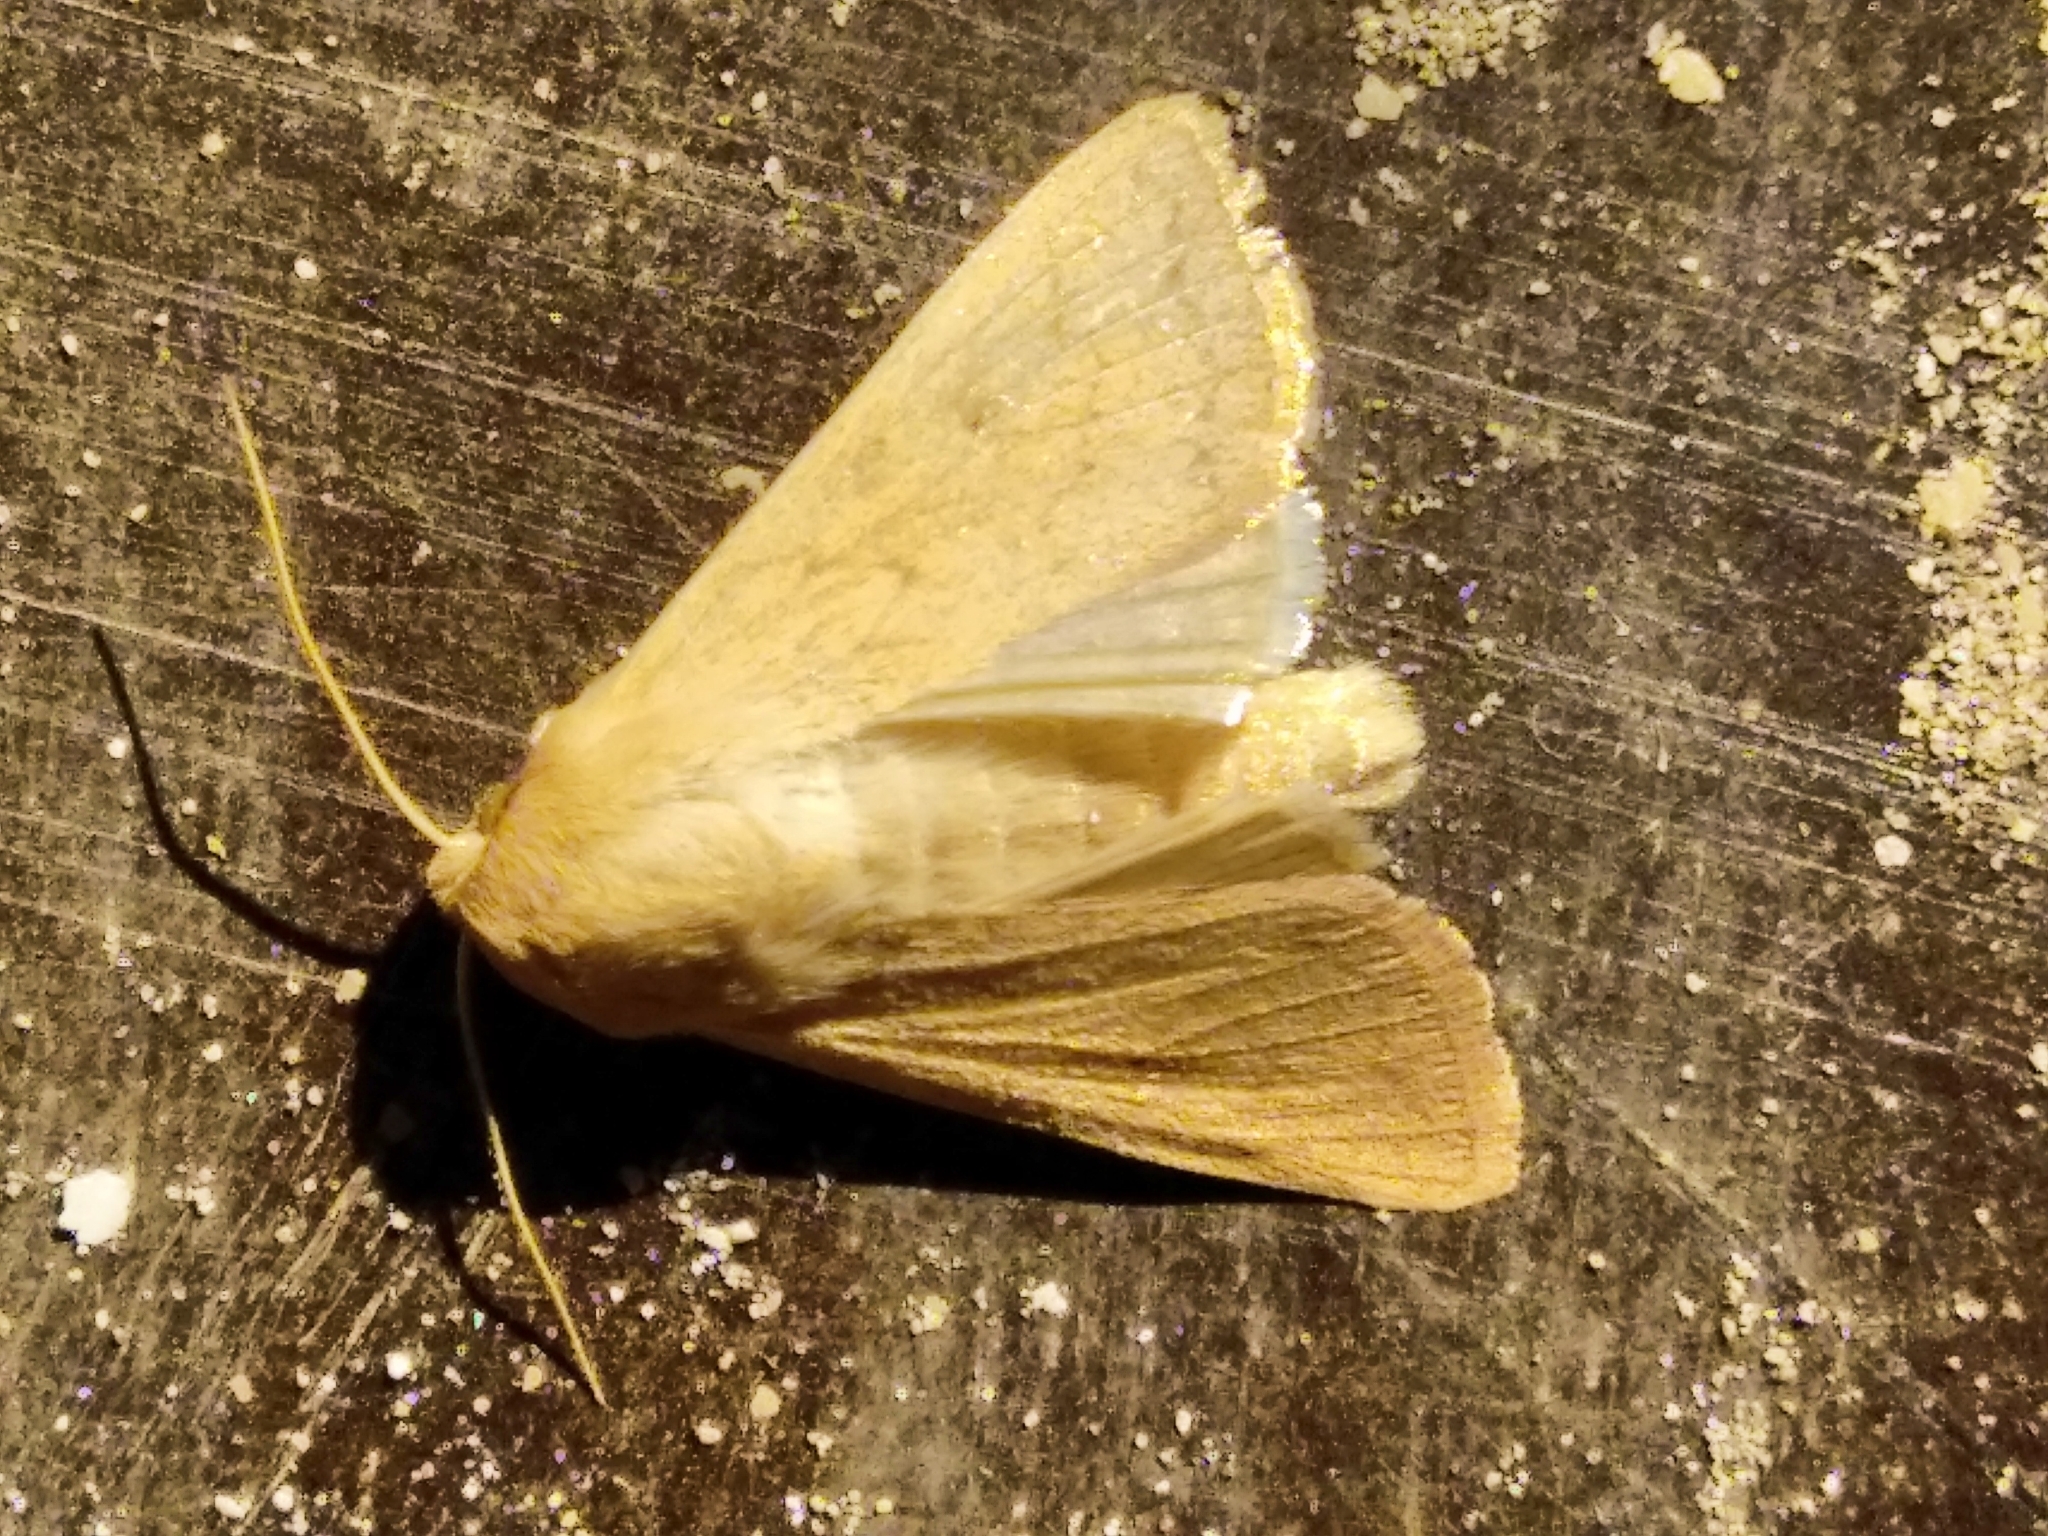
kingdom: Animalia
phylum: Arthropoda
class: Insecta
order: Lepidoptera
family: Noctuidae
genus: Mythimna
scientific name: Mythimna vitellina
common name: Delicate
